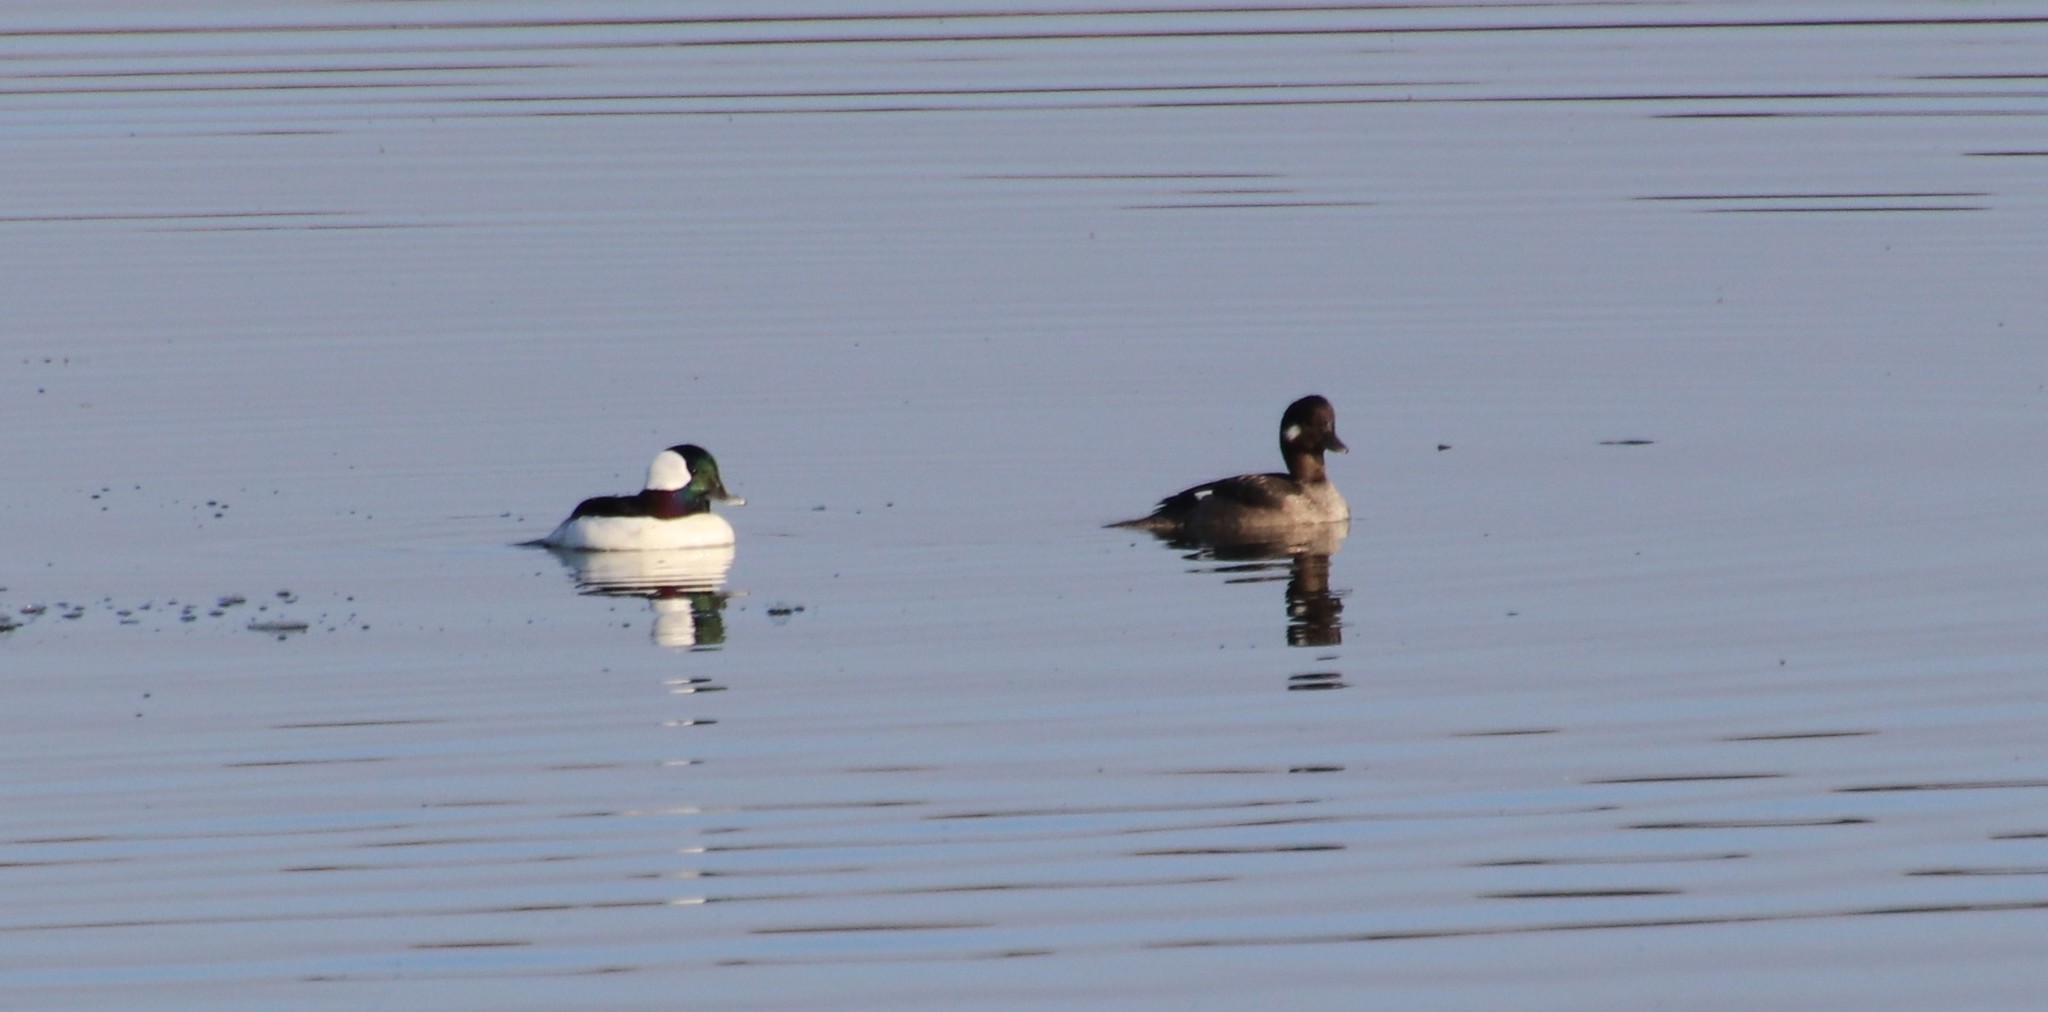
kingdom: Animalia
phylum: Chordata
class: Aves
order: Anseriformes
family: Anatidae
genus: Bucephala
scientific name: Bucephala albeola
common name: Bufflehead
